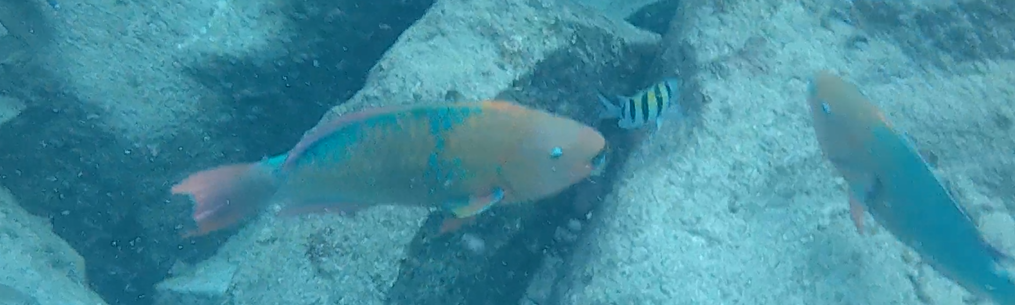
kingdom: Animalia
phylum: Chordata
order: Perciformes
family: Scaridae
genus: Scarus
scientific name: Scarus guacamaia
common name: Rainbow parrotfish
